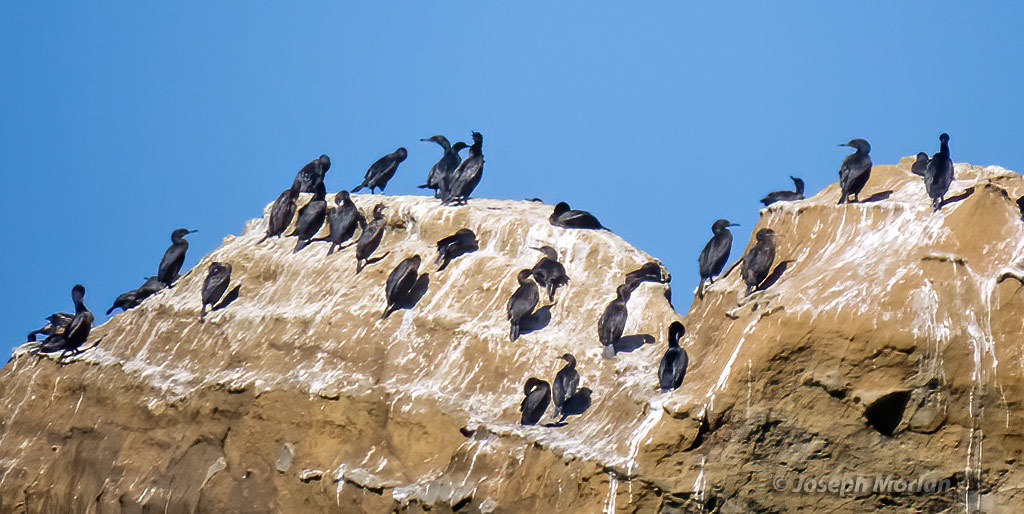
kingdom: Animalia
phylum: Chordata
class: Aves
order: Suliformes
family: Phalacrocoracidae
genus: Urile
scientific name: Urile penicillatus
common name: Brandt's cormorant
